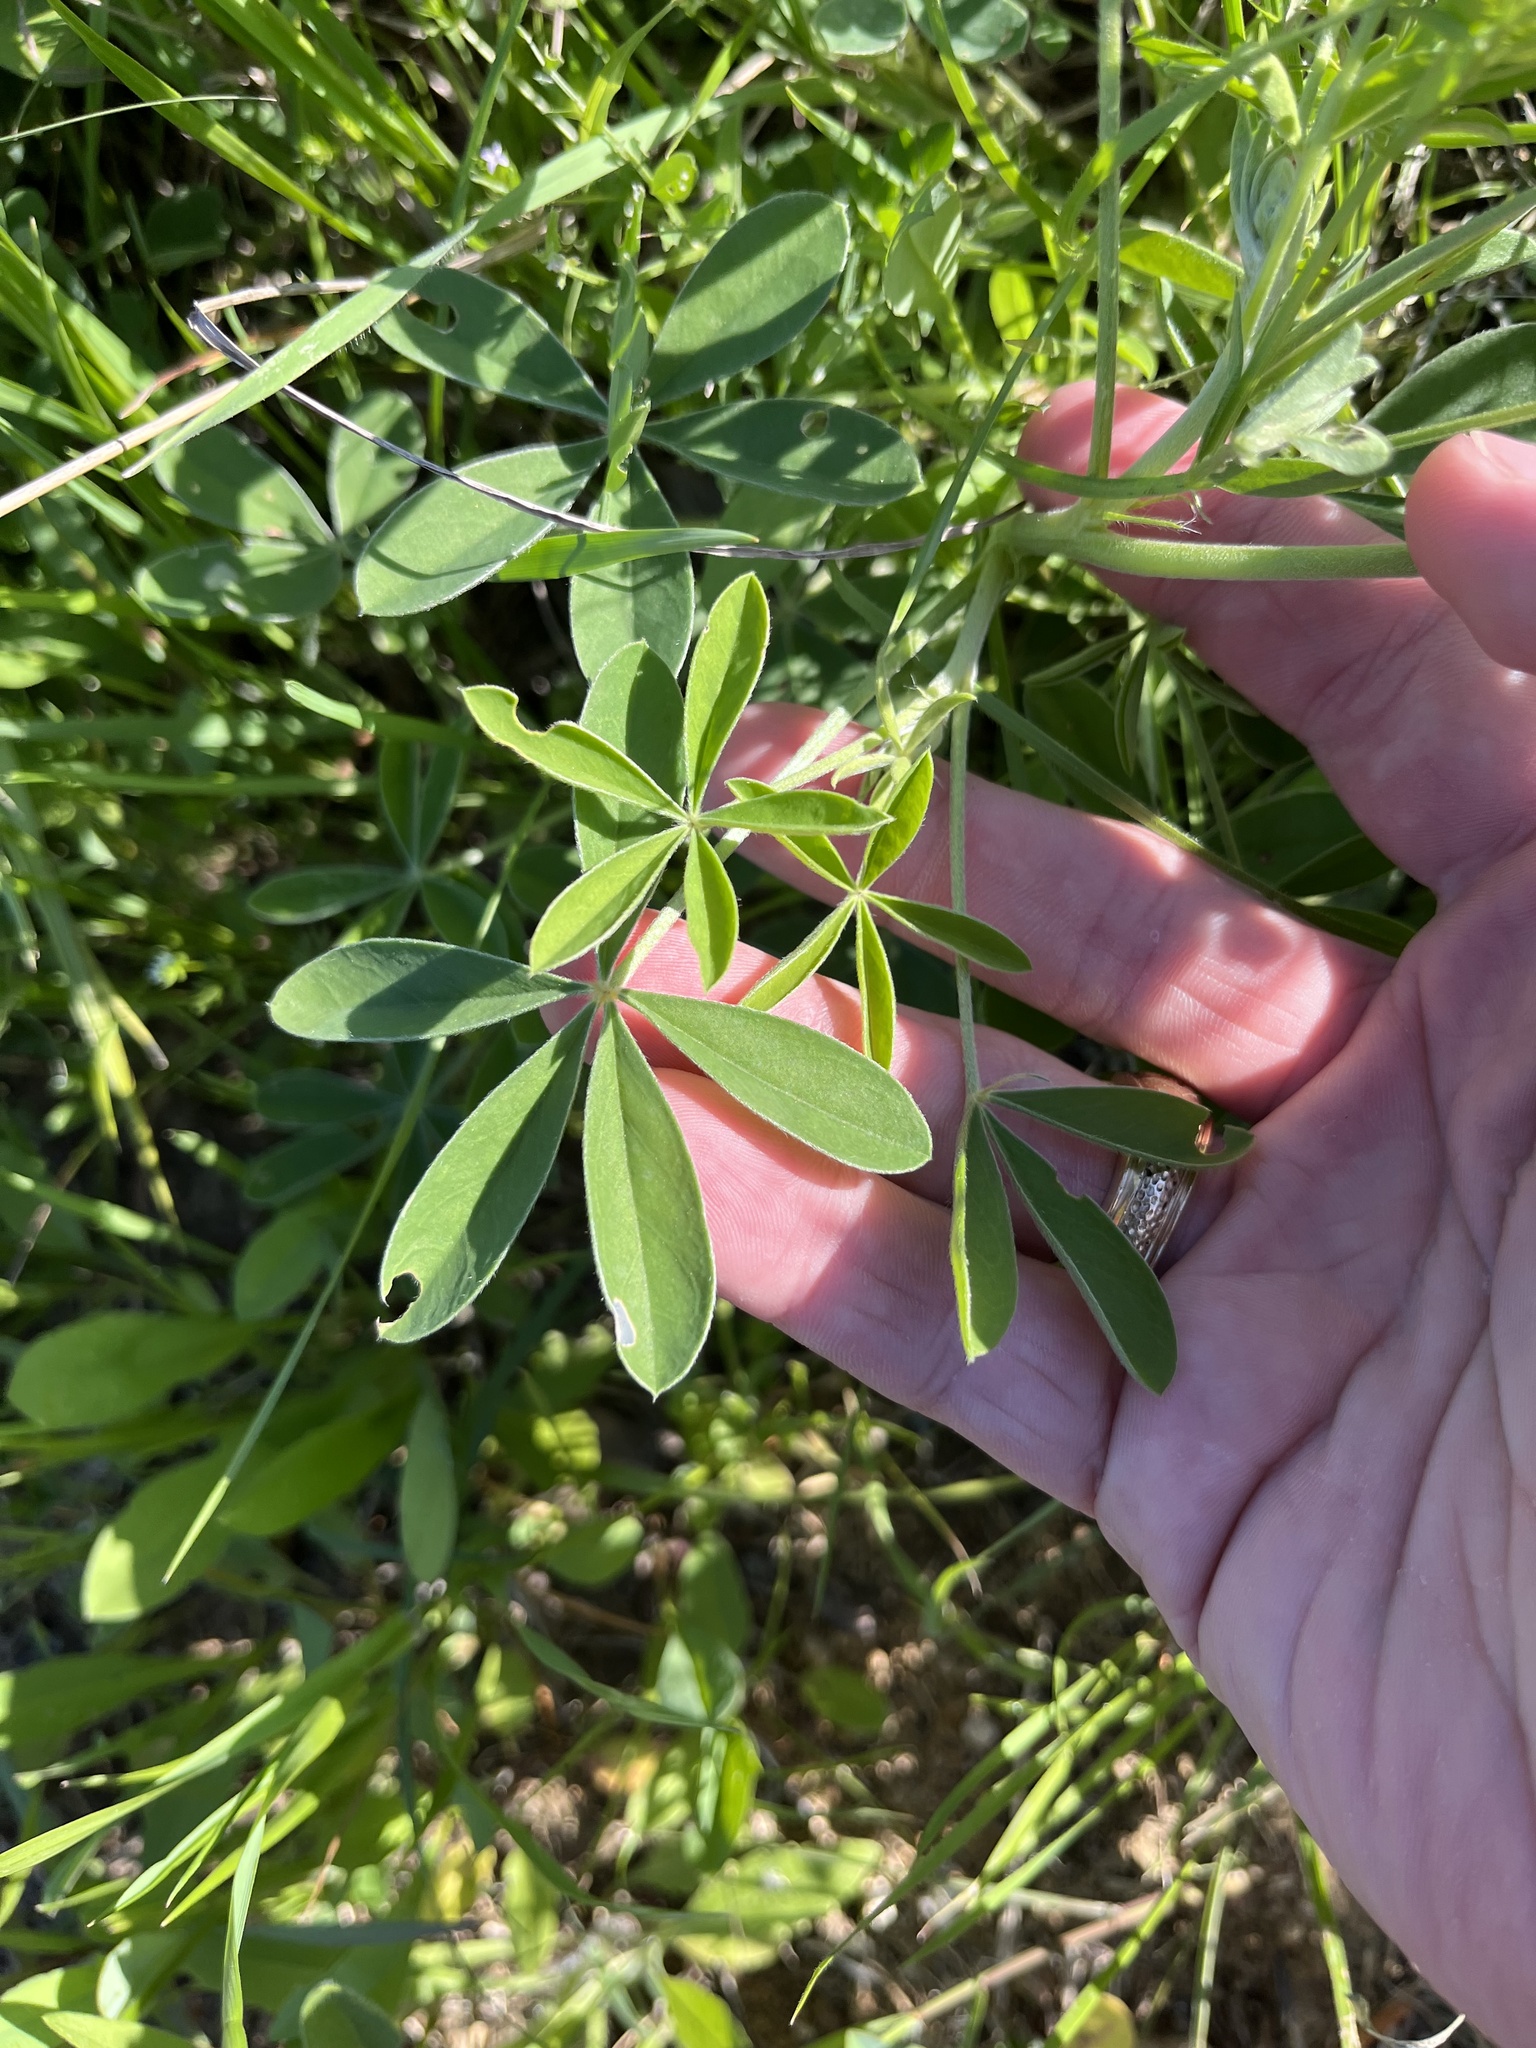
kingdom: Plantae
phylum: Tracheophyta
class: Magnoliopsida
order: Fabales
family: Fabaceae
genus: Lupinus
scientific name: Lupinus texensis
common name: Texas bluebonnet
